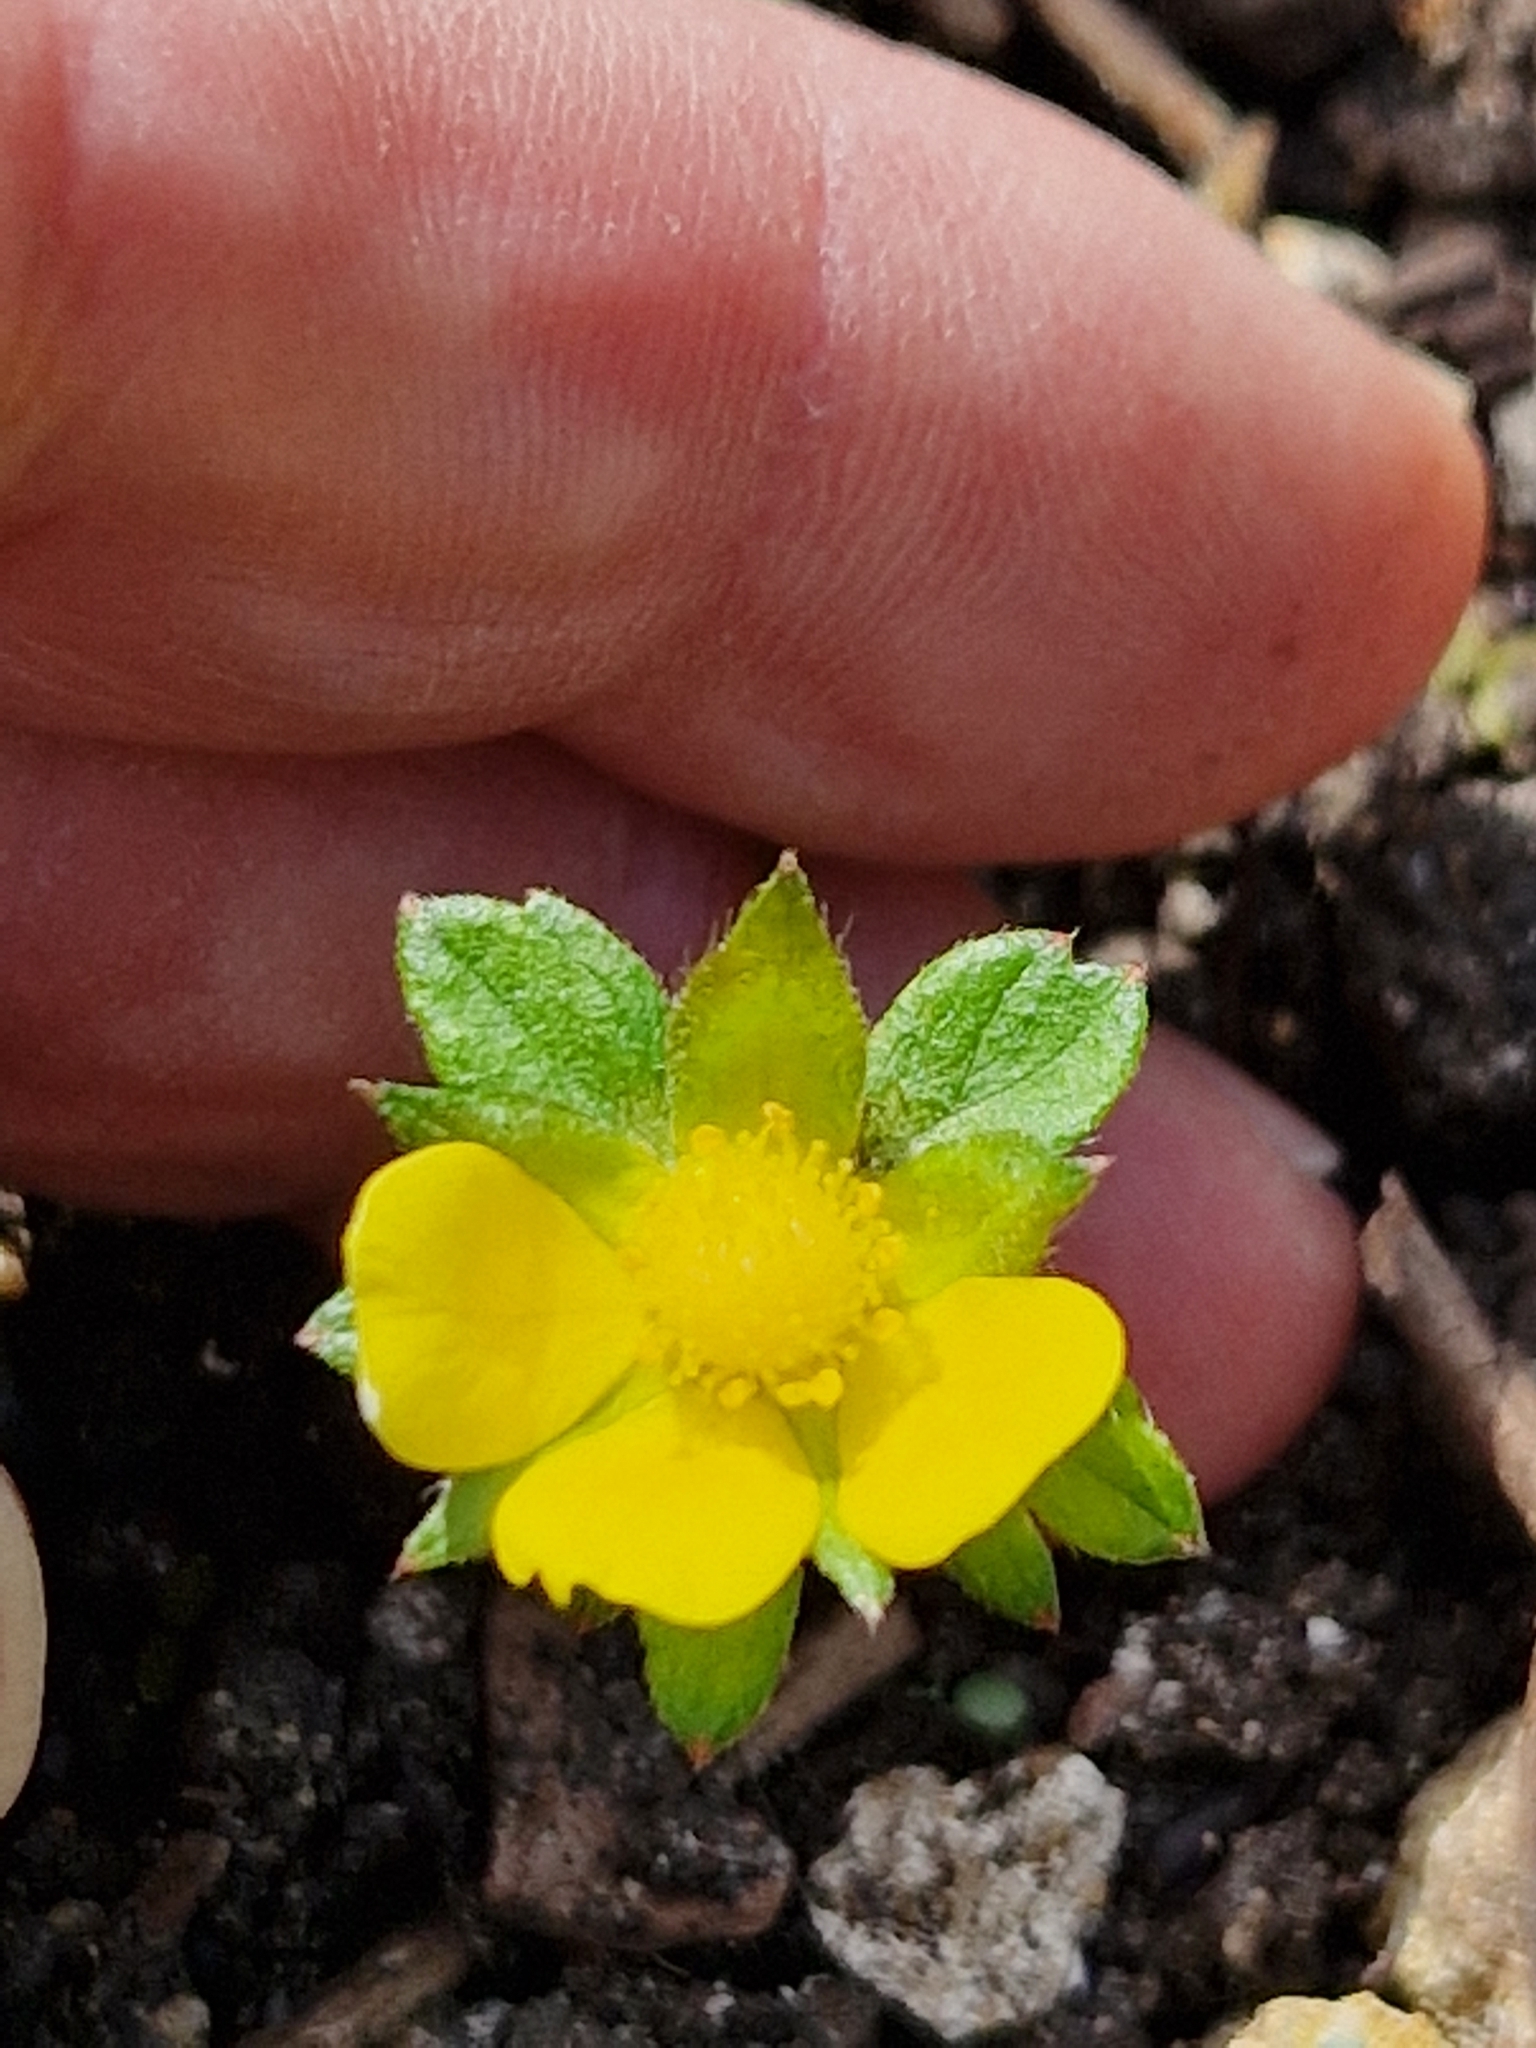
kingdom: Plantae
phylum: Tracheophyta
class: Magnoliopsida
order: Rosales
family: Rosaceae
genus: Potentilla
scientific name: Potentilla indica
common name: Yellow-flowered strawberry
